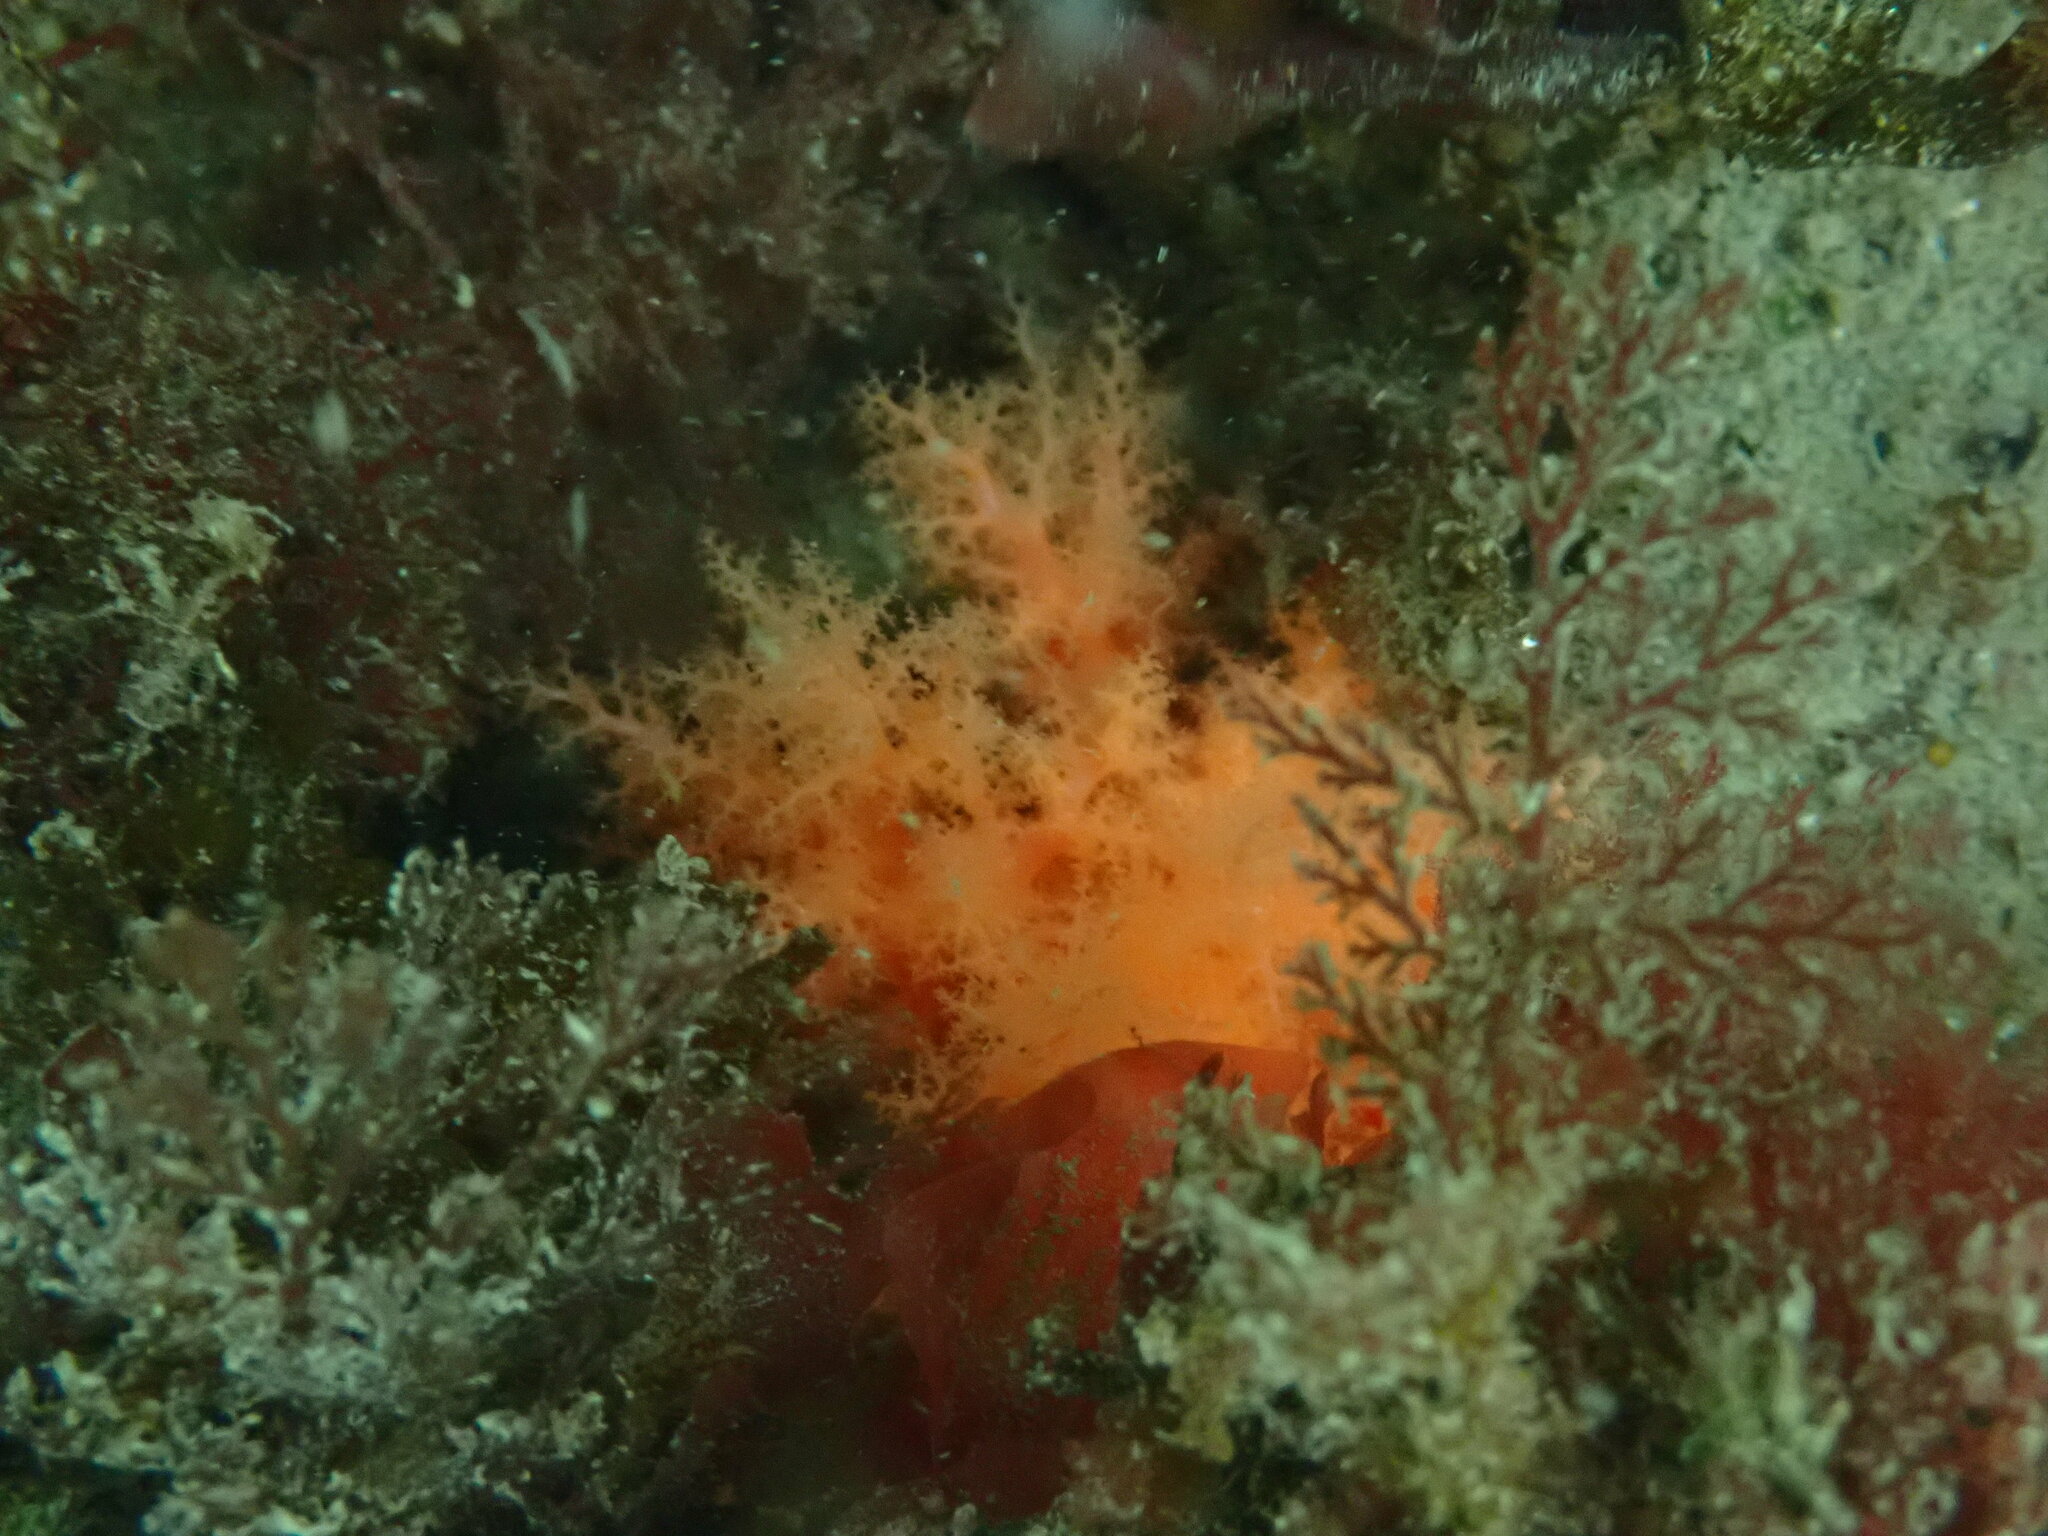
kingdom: Animalia
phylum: Echinodermata
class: Holothuroidea
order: Dendrochirotida
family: Cucumariidae
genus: Cucumaria
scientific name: Cucumaria miniata
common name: Orange sea cucumber
